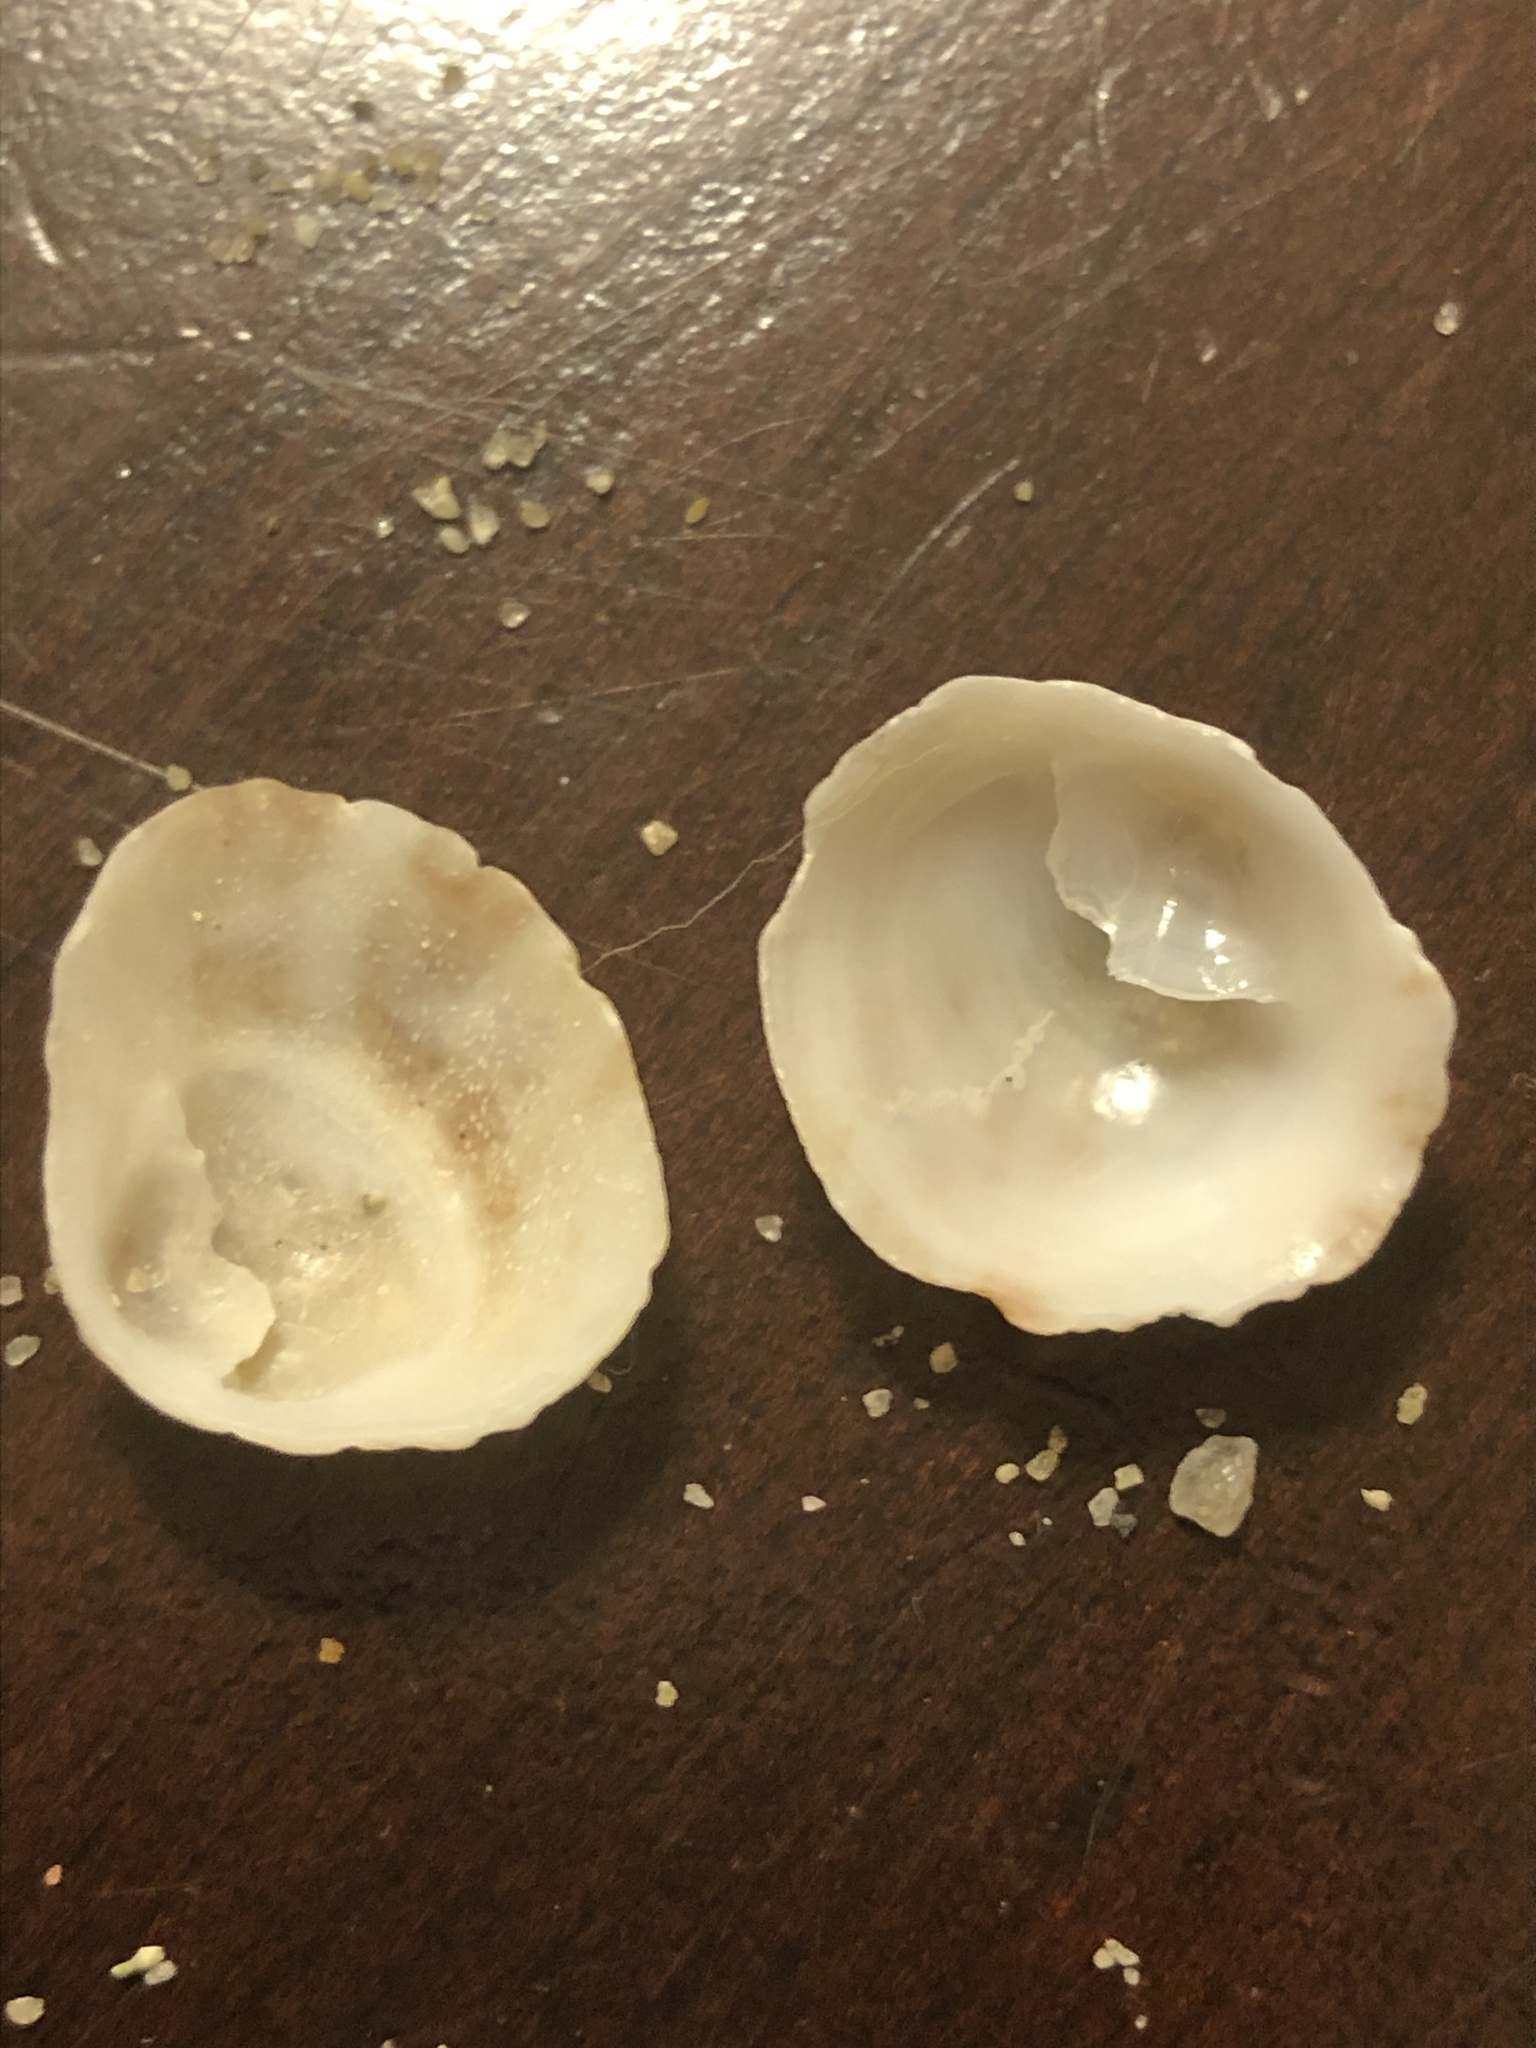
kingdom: Animalia
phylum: Mollusca
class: Gastropoda
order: Littorinimorpha
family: Calyptraeidae
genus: Crepipatella
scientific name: Crepipatella lingulata
